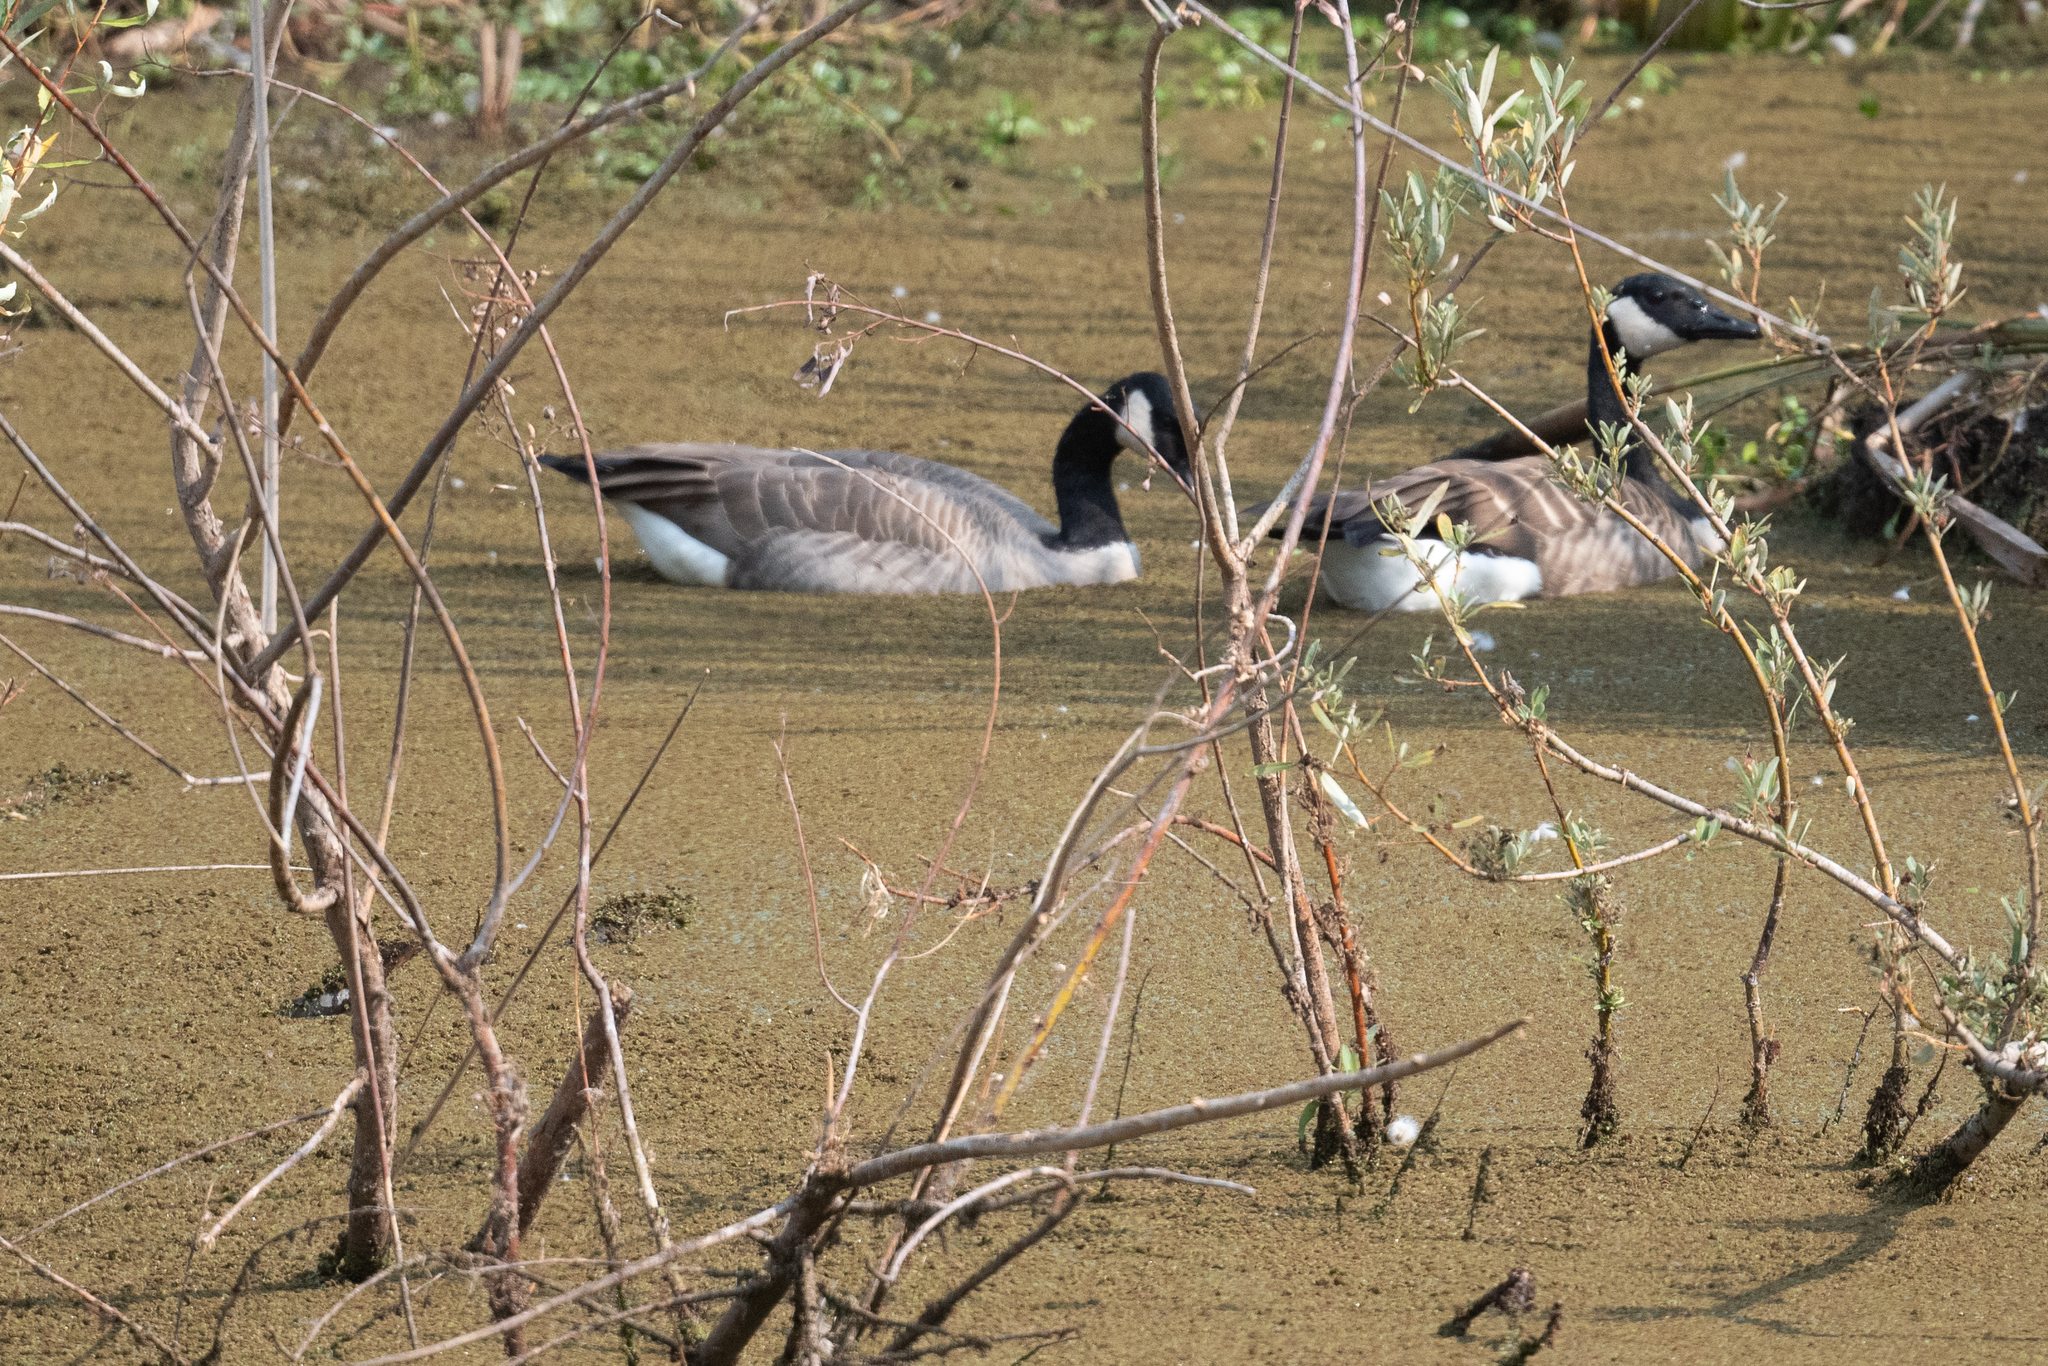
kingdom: Animalia
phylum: Chordata
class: Aves
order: Anseriformes
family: Anatidae
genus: Branta
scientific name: Branta canadensis
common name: Canada goose
